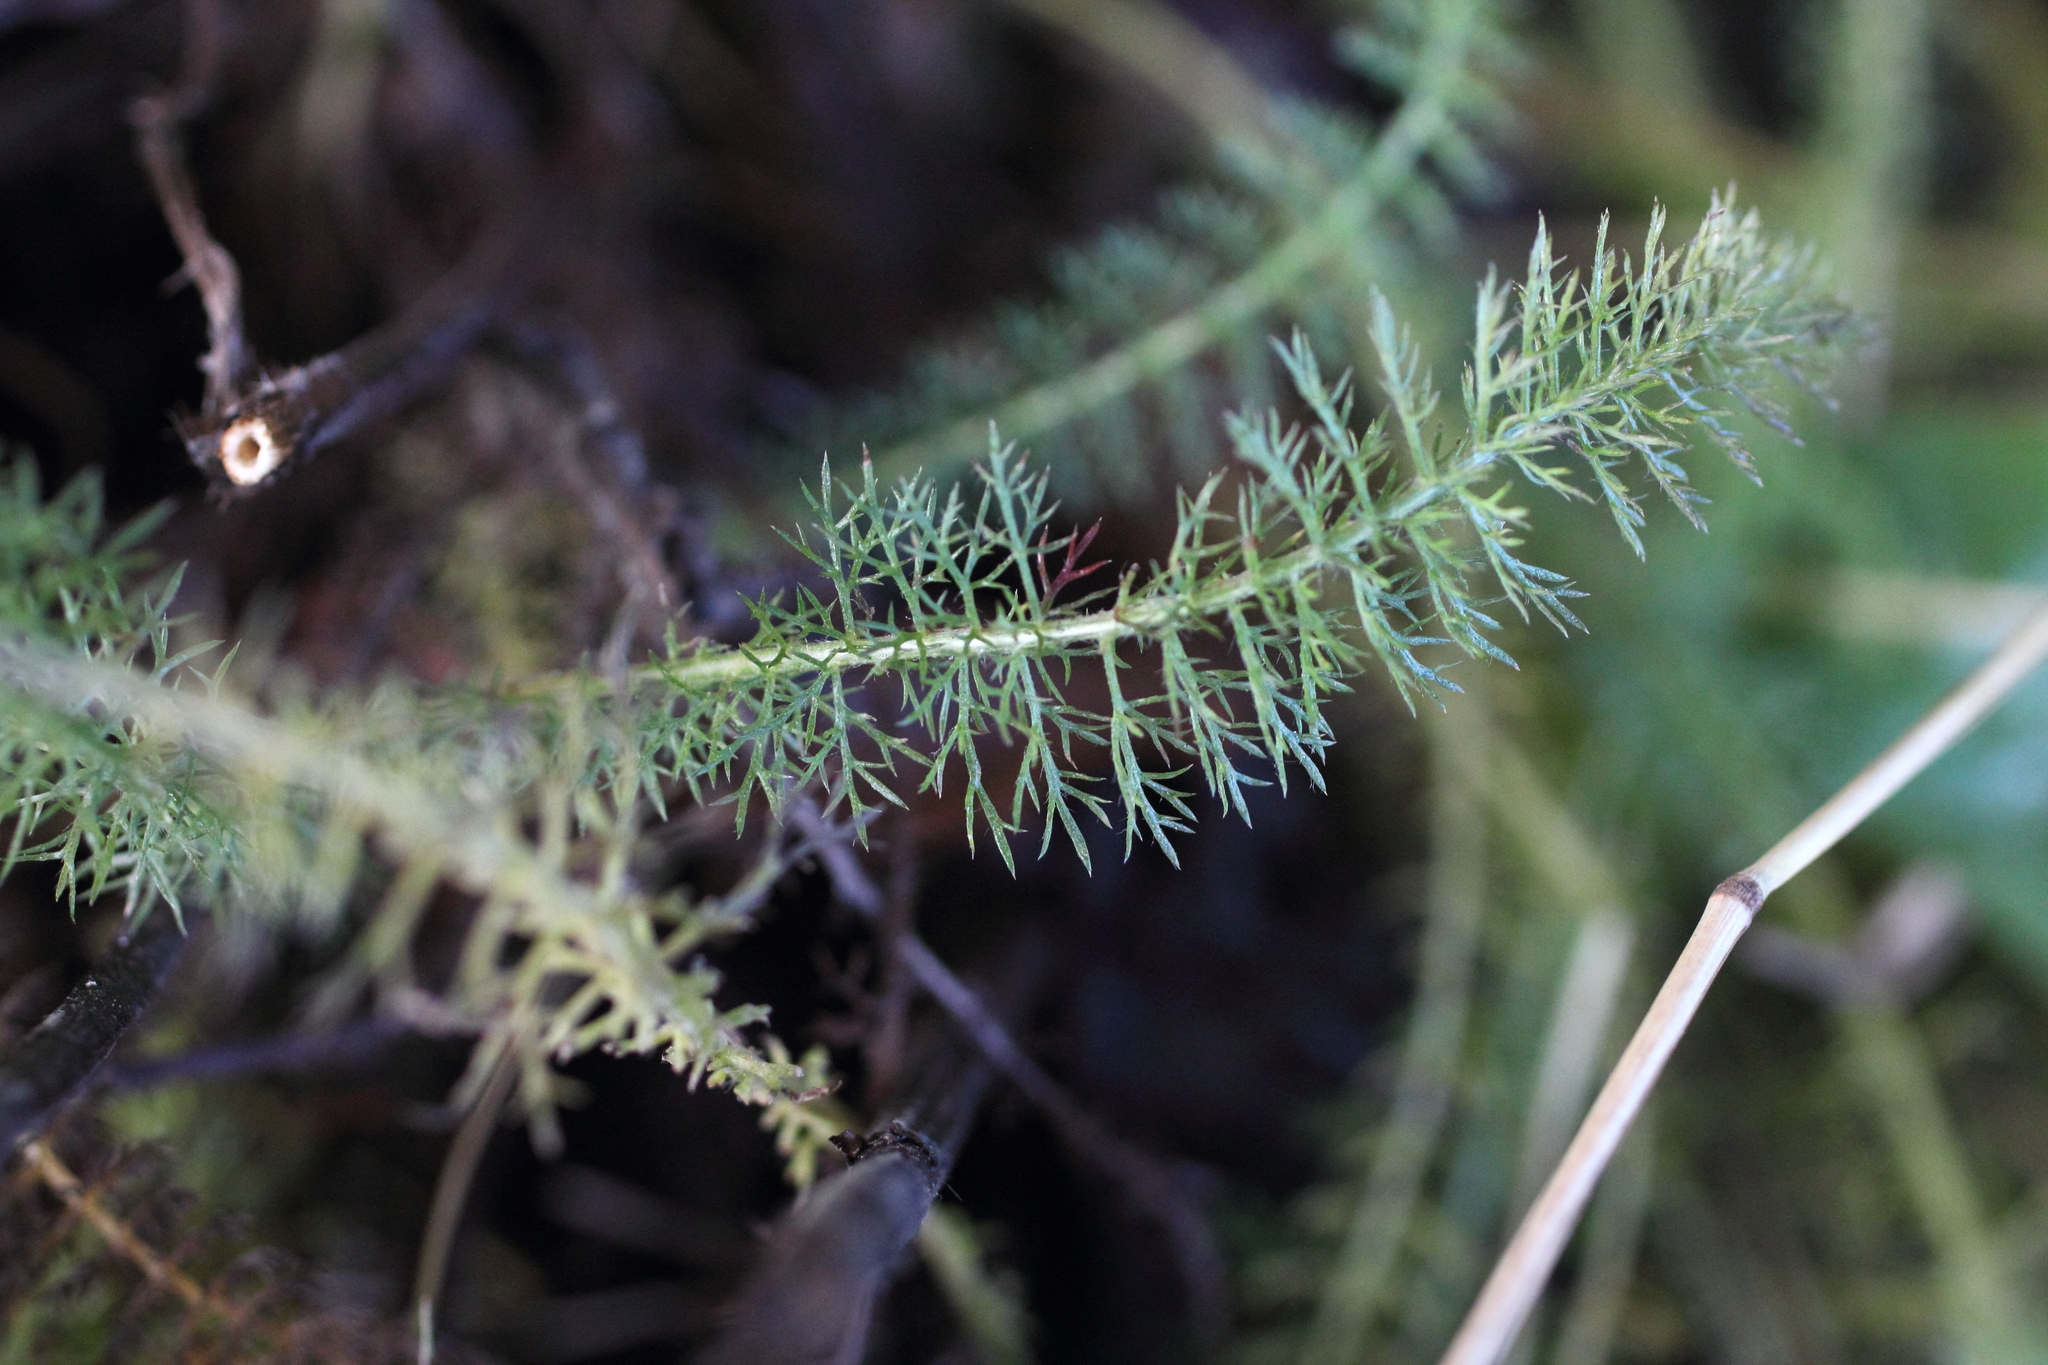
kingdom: Plantae
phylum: Tracheophyta
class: Magnoliopsida
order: Asterales
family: Asteraceae
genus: Achillea
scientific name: Achillea millefolium
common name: Yarrow
